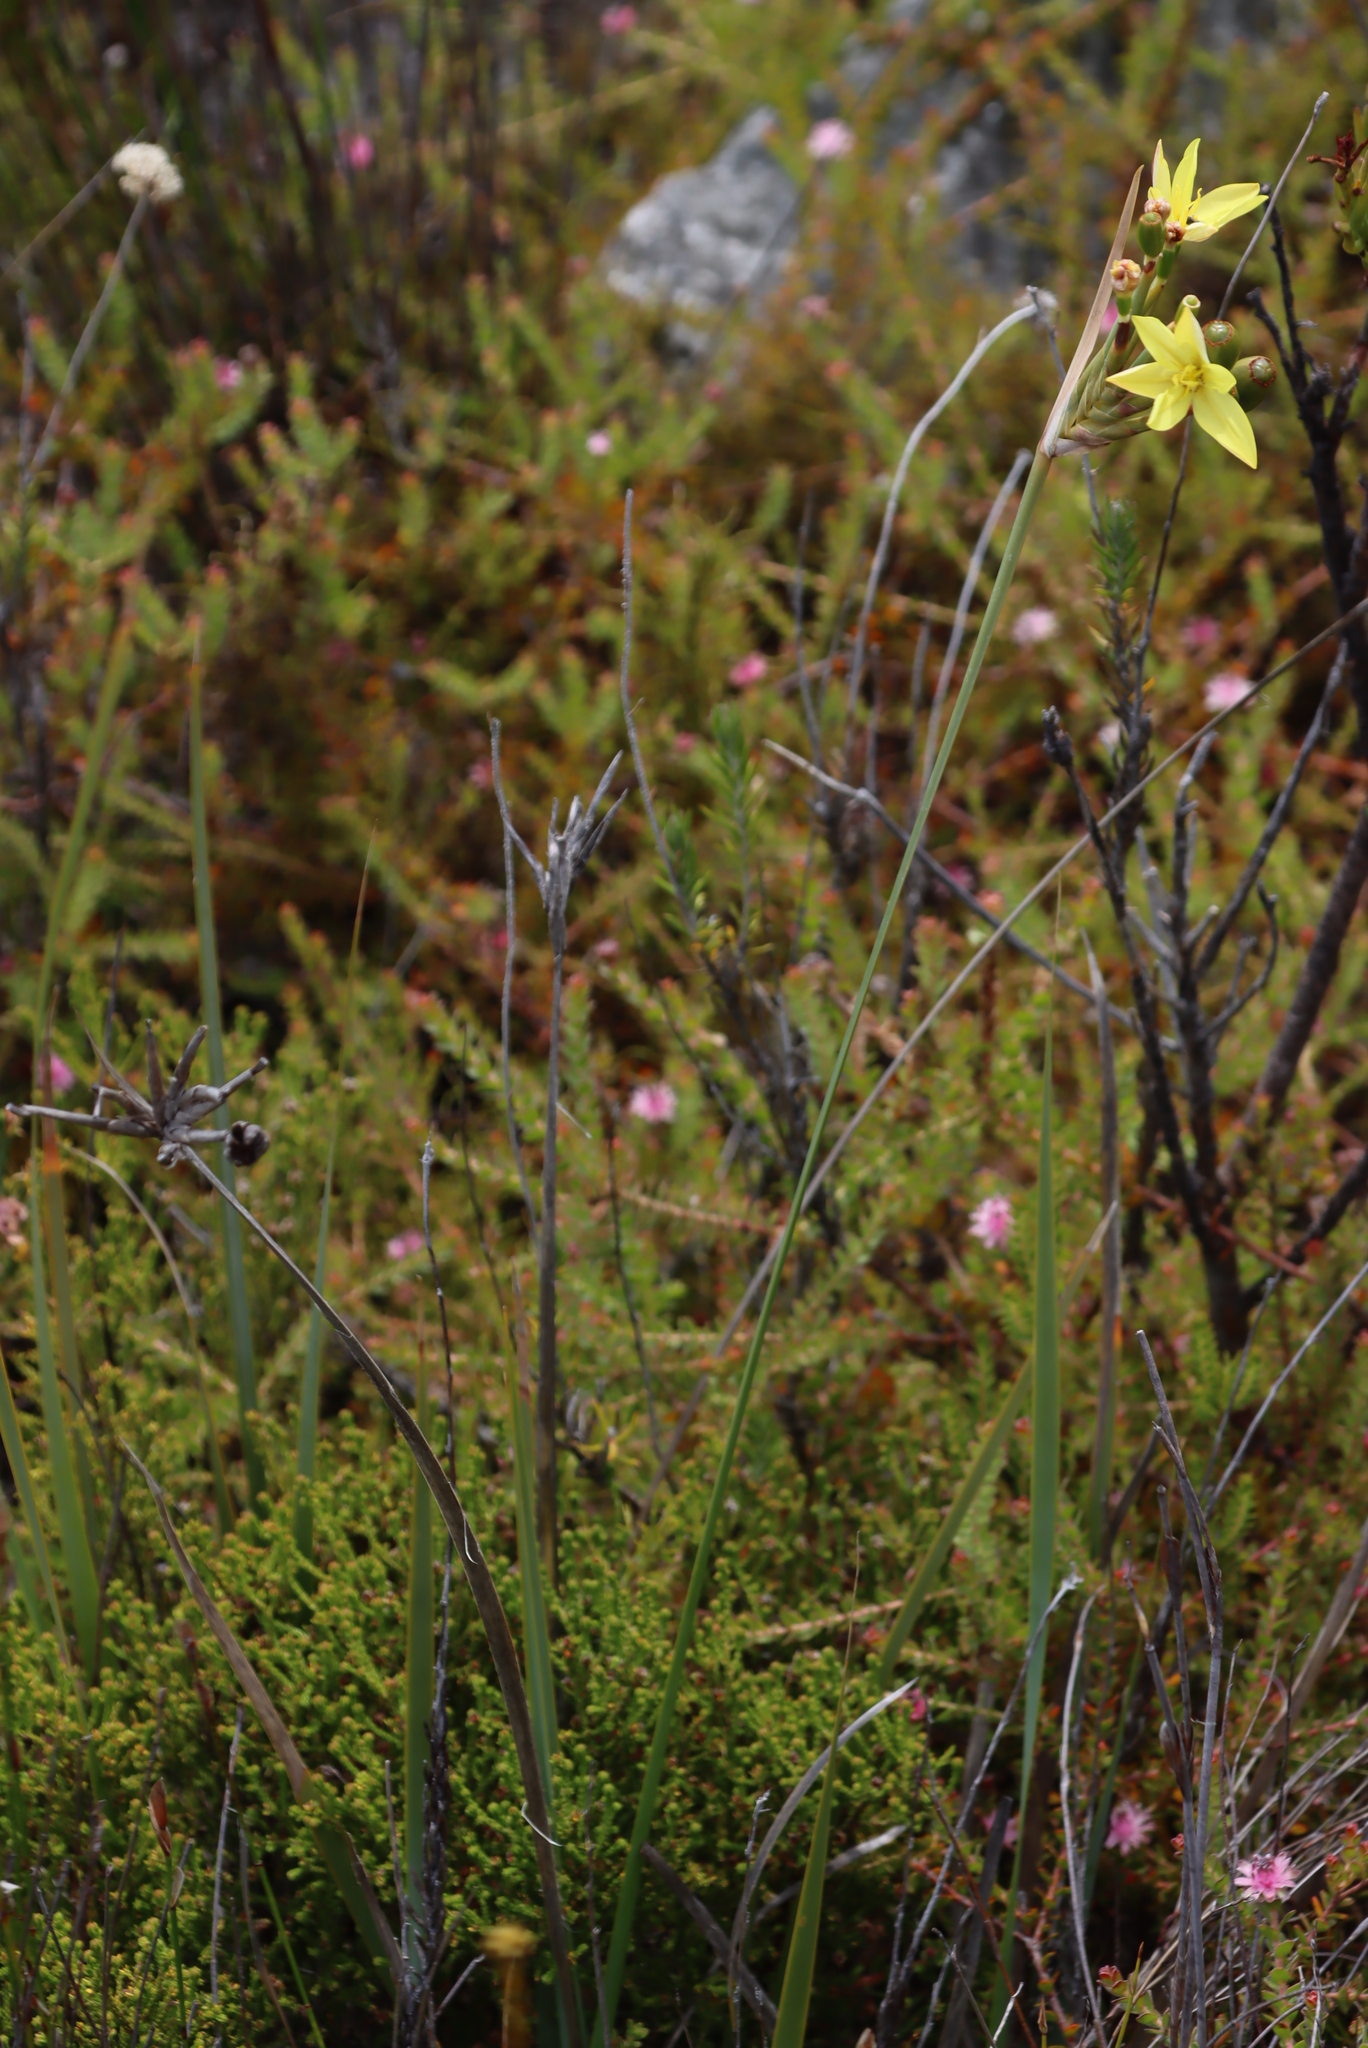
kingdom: Plantae
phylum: Tracheophyta
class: Liliopsida
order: Asparagales
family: Iridaceae
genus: Bobartia
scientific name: Bobartia gladiata
